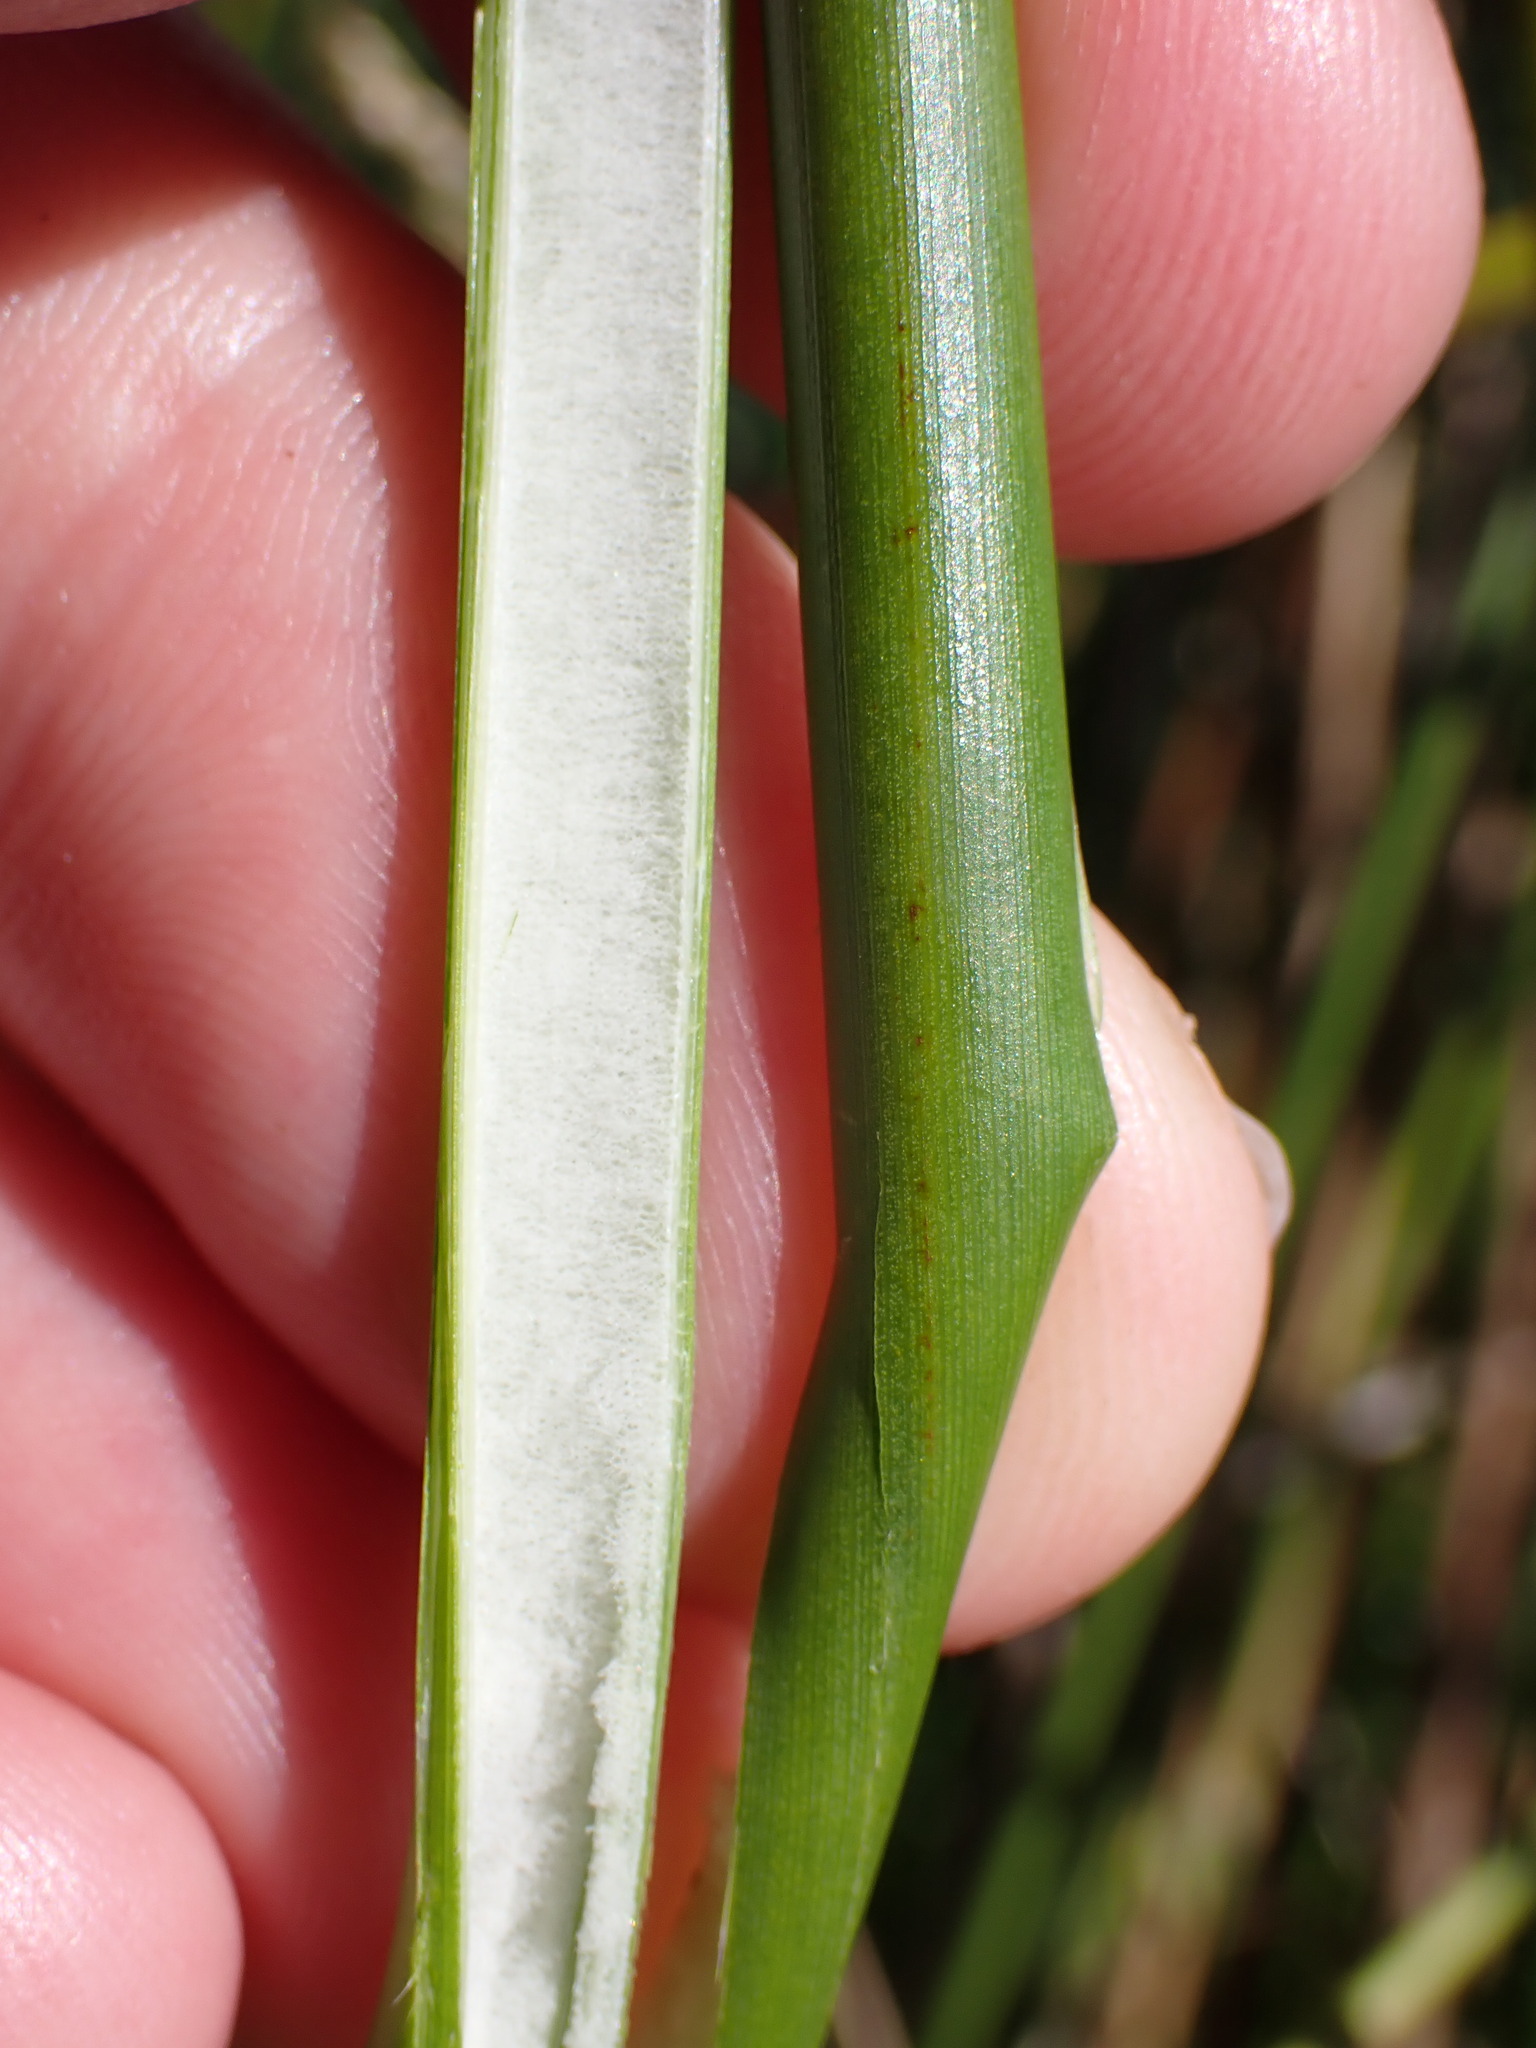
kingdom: Plantae
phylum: Tracheophyta
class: Liliopsida
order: Poales
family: Juncaceae
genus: Juncus
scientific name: Juncus pallidus
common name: Great soft-rush
